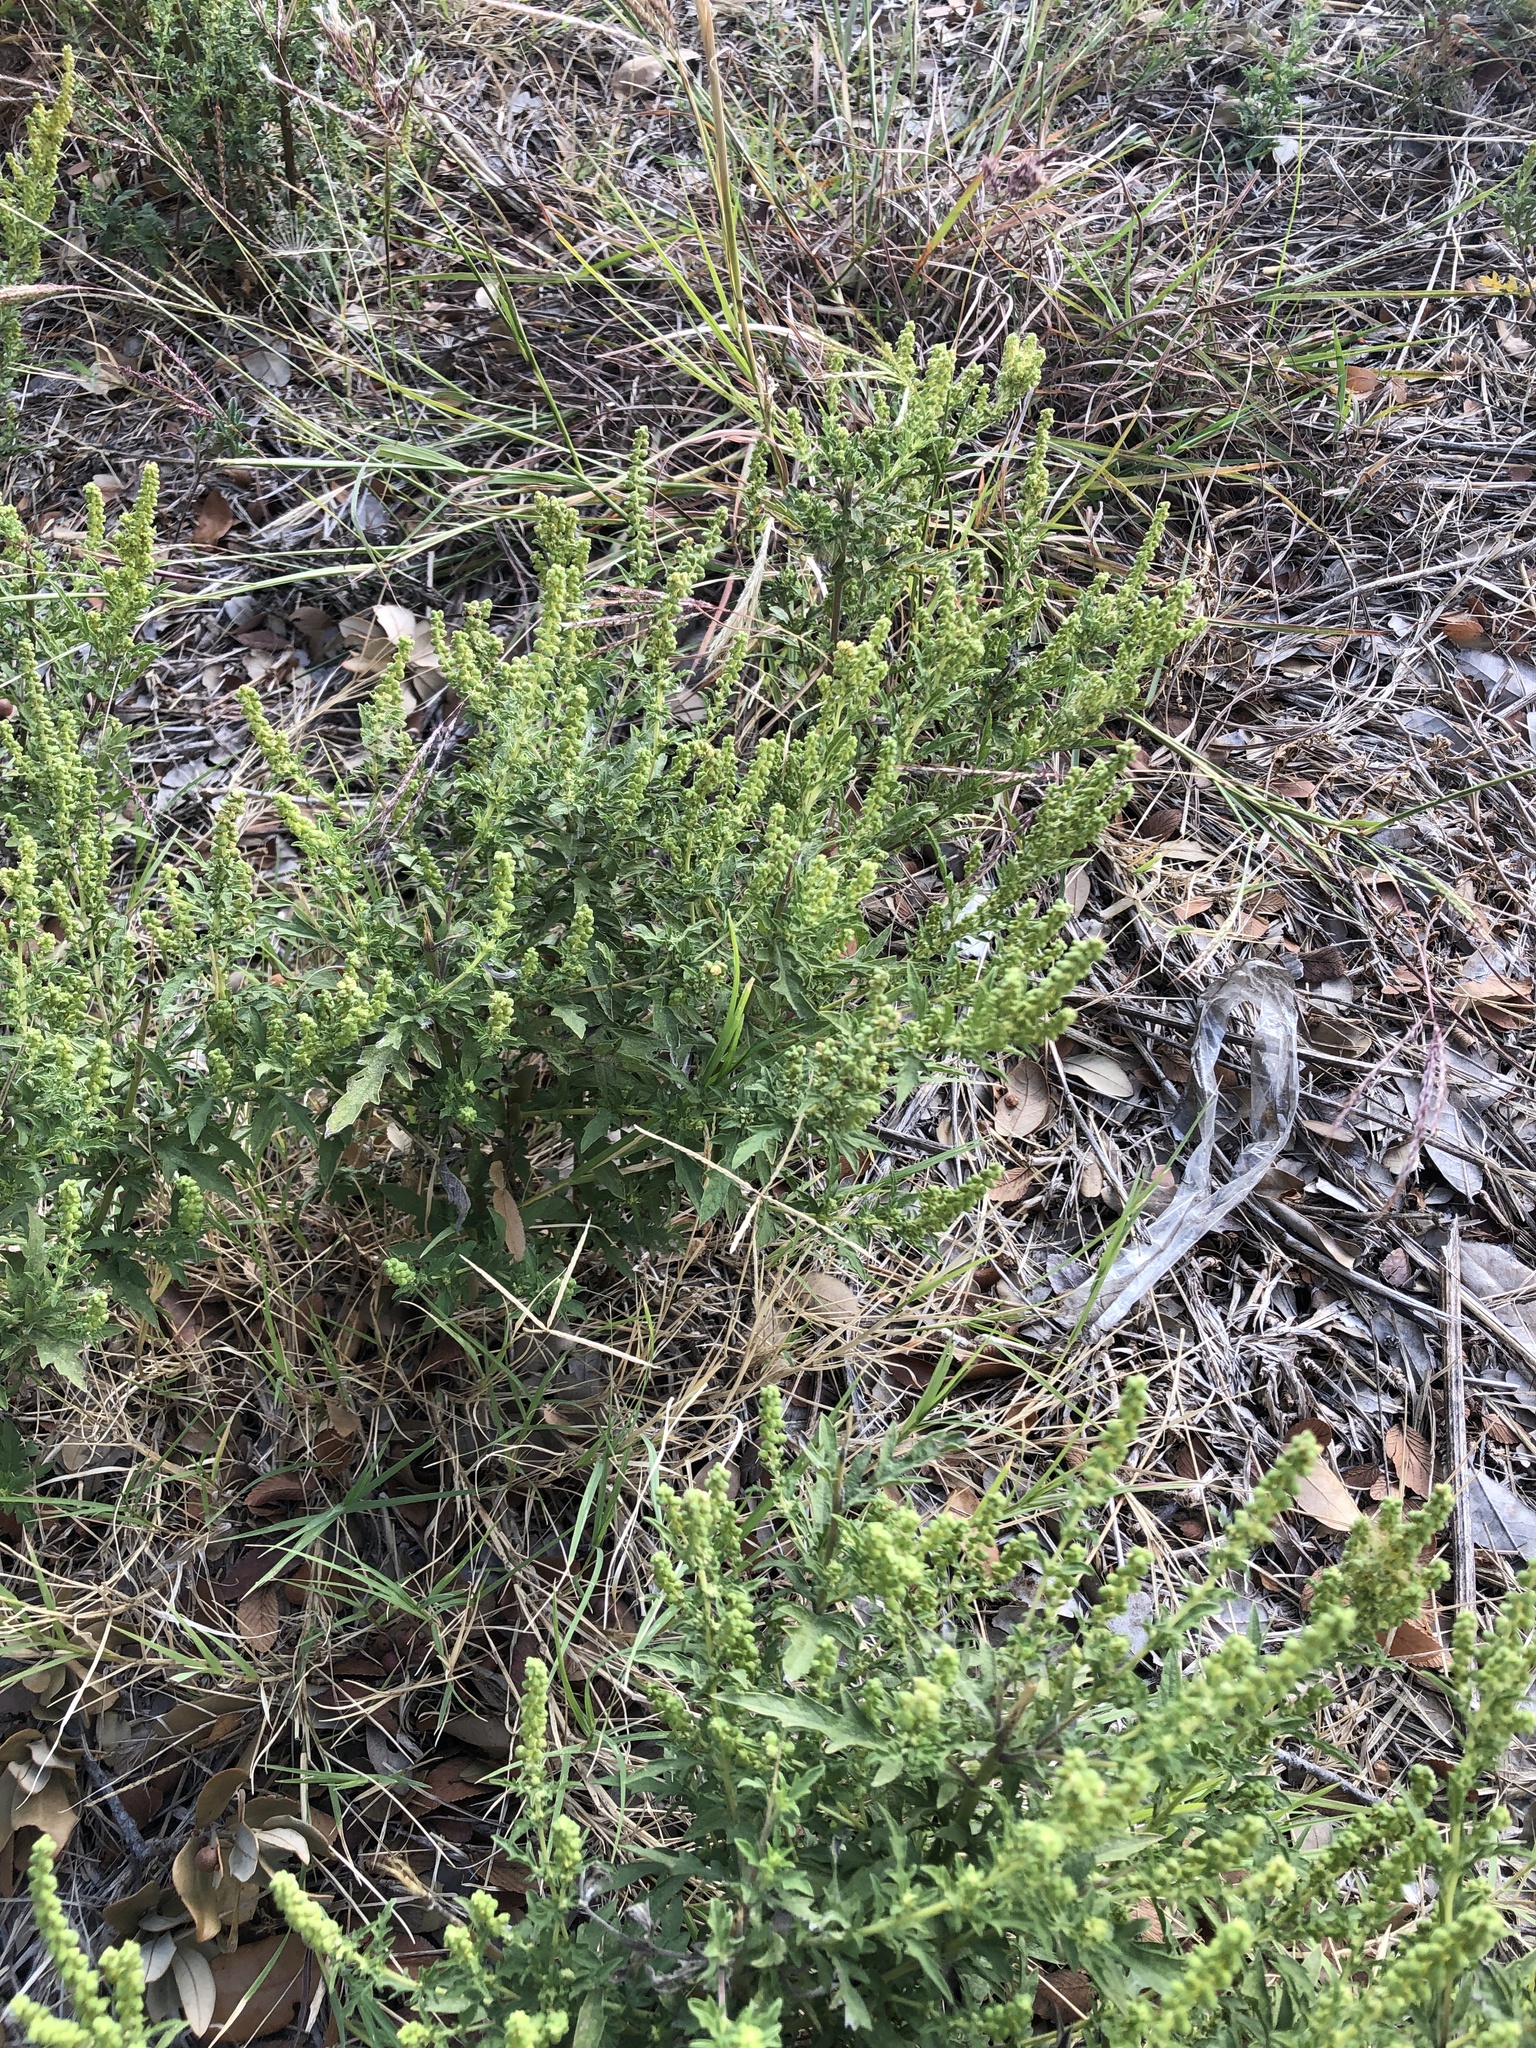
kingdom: Plantae
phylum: Tracheophyta
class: Magnoliopsida
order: Asterales
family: Asteraceae
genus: Ambrosia
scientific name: Ambrosia psilostachya
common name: Perennial ragweed
